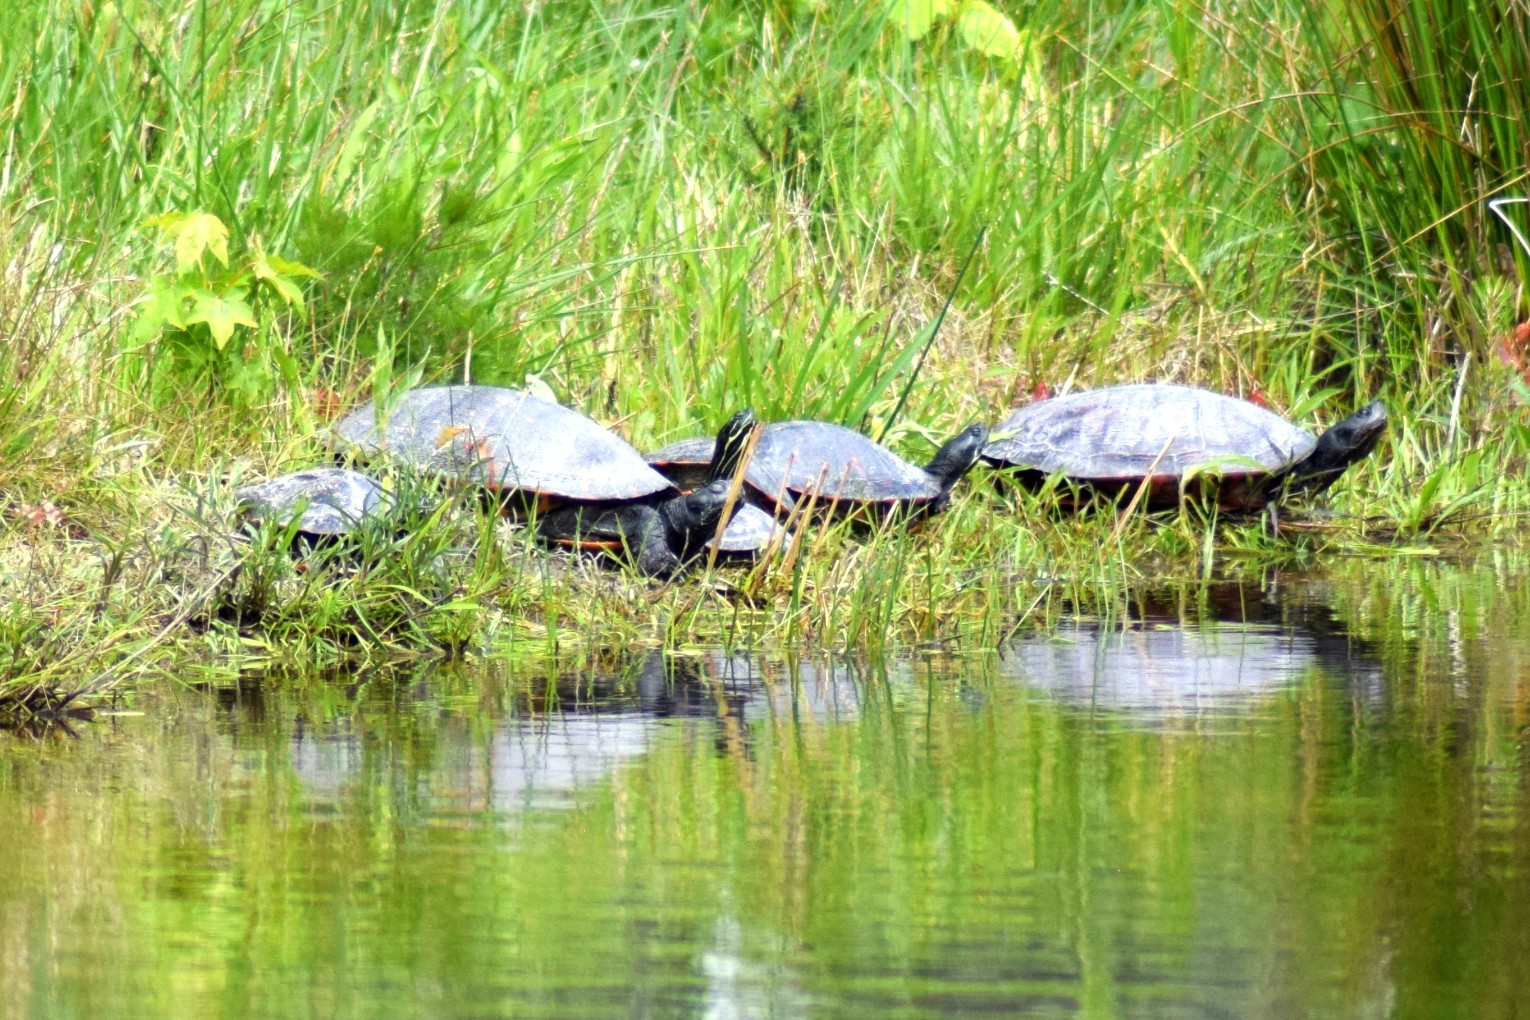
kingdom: Animalia
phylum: Chordata
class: Testudines
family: Emydidae
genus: Pseudemys
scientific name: Pseudemys rubriventris
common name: American red-bellied turtle
